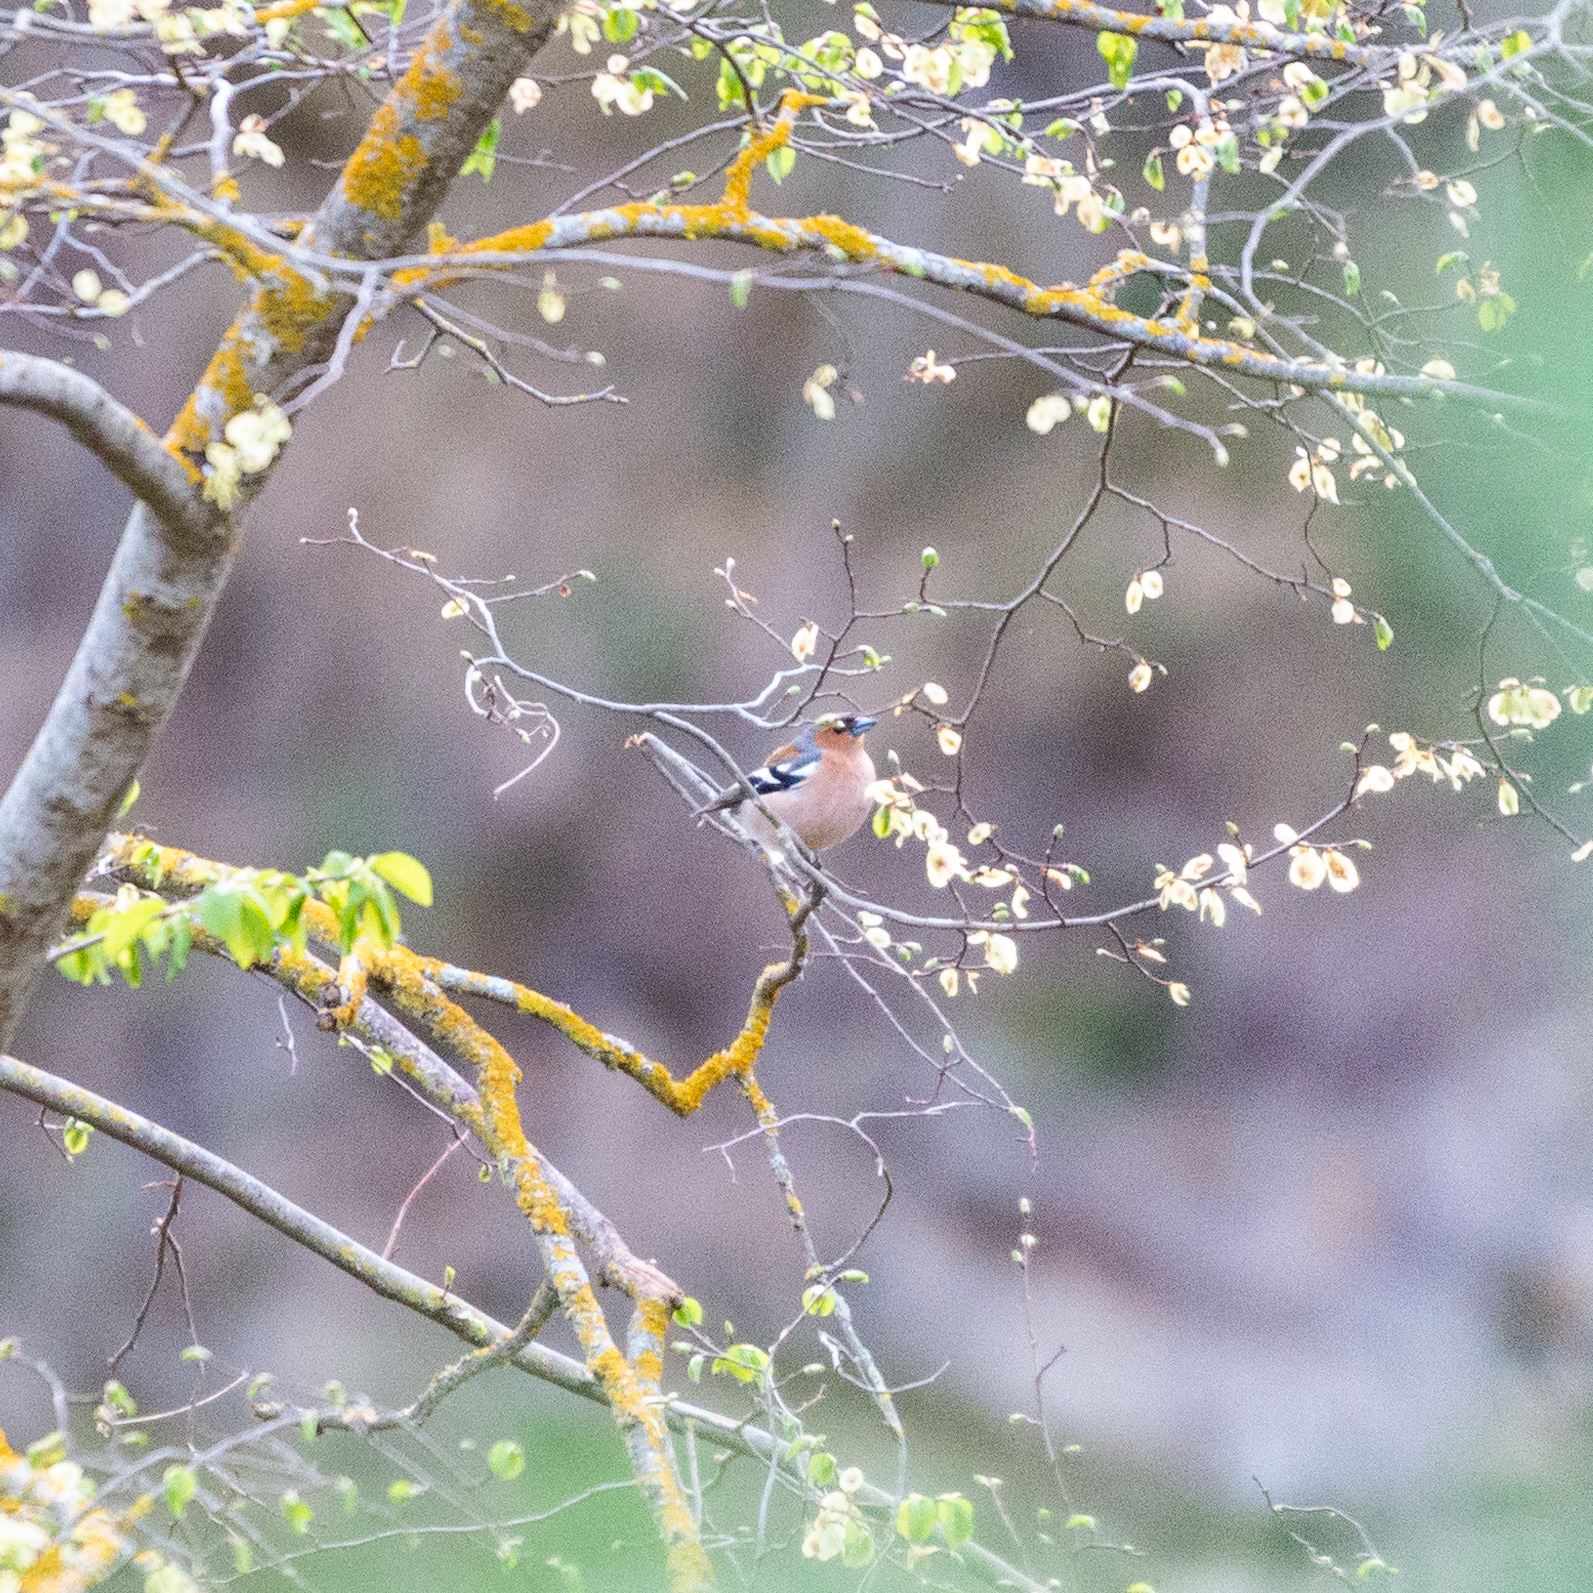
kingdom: Animalia
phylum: Chordata
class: Aves
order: Passeriformes
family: Fringillidae
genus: Fringilla
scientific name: Fringilla coelebs
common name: Common chaffinch
